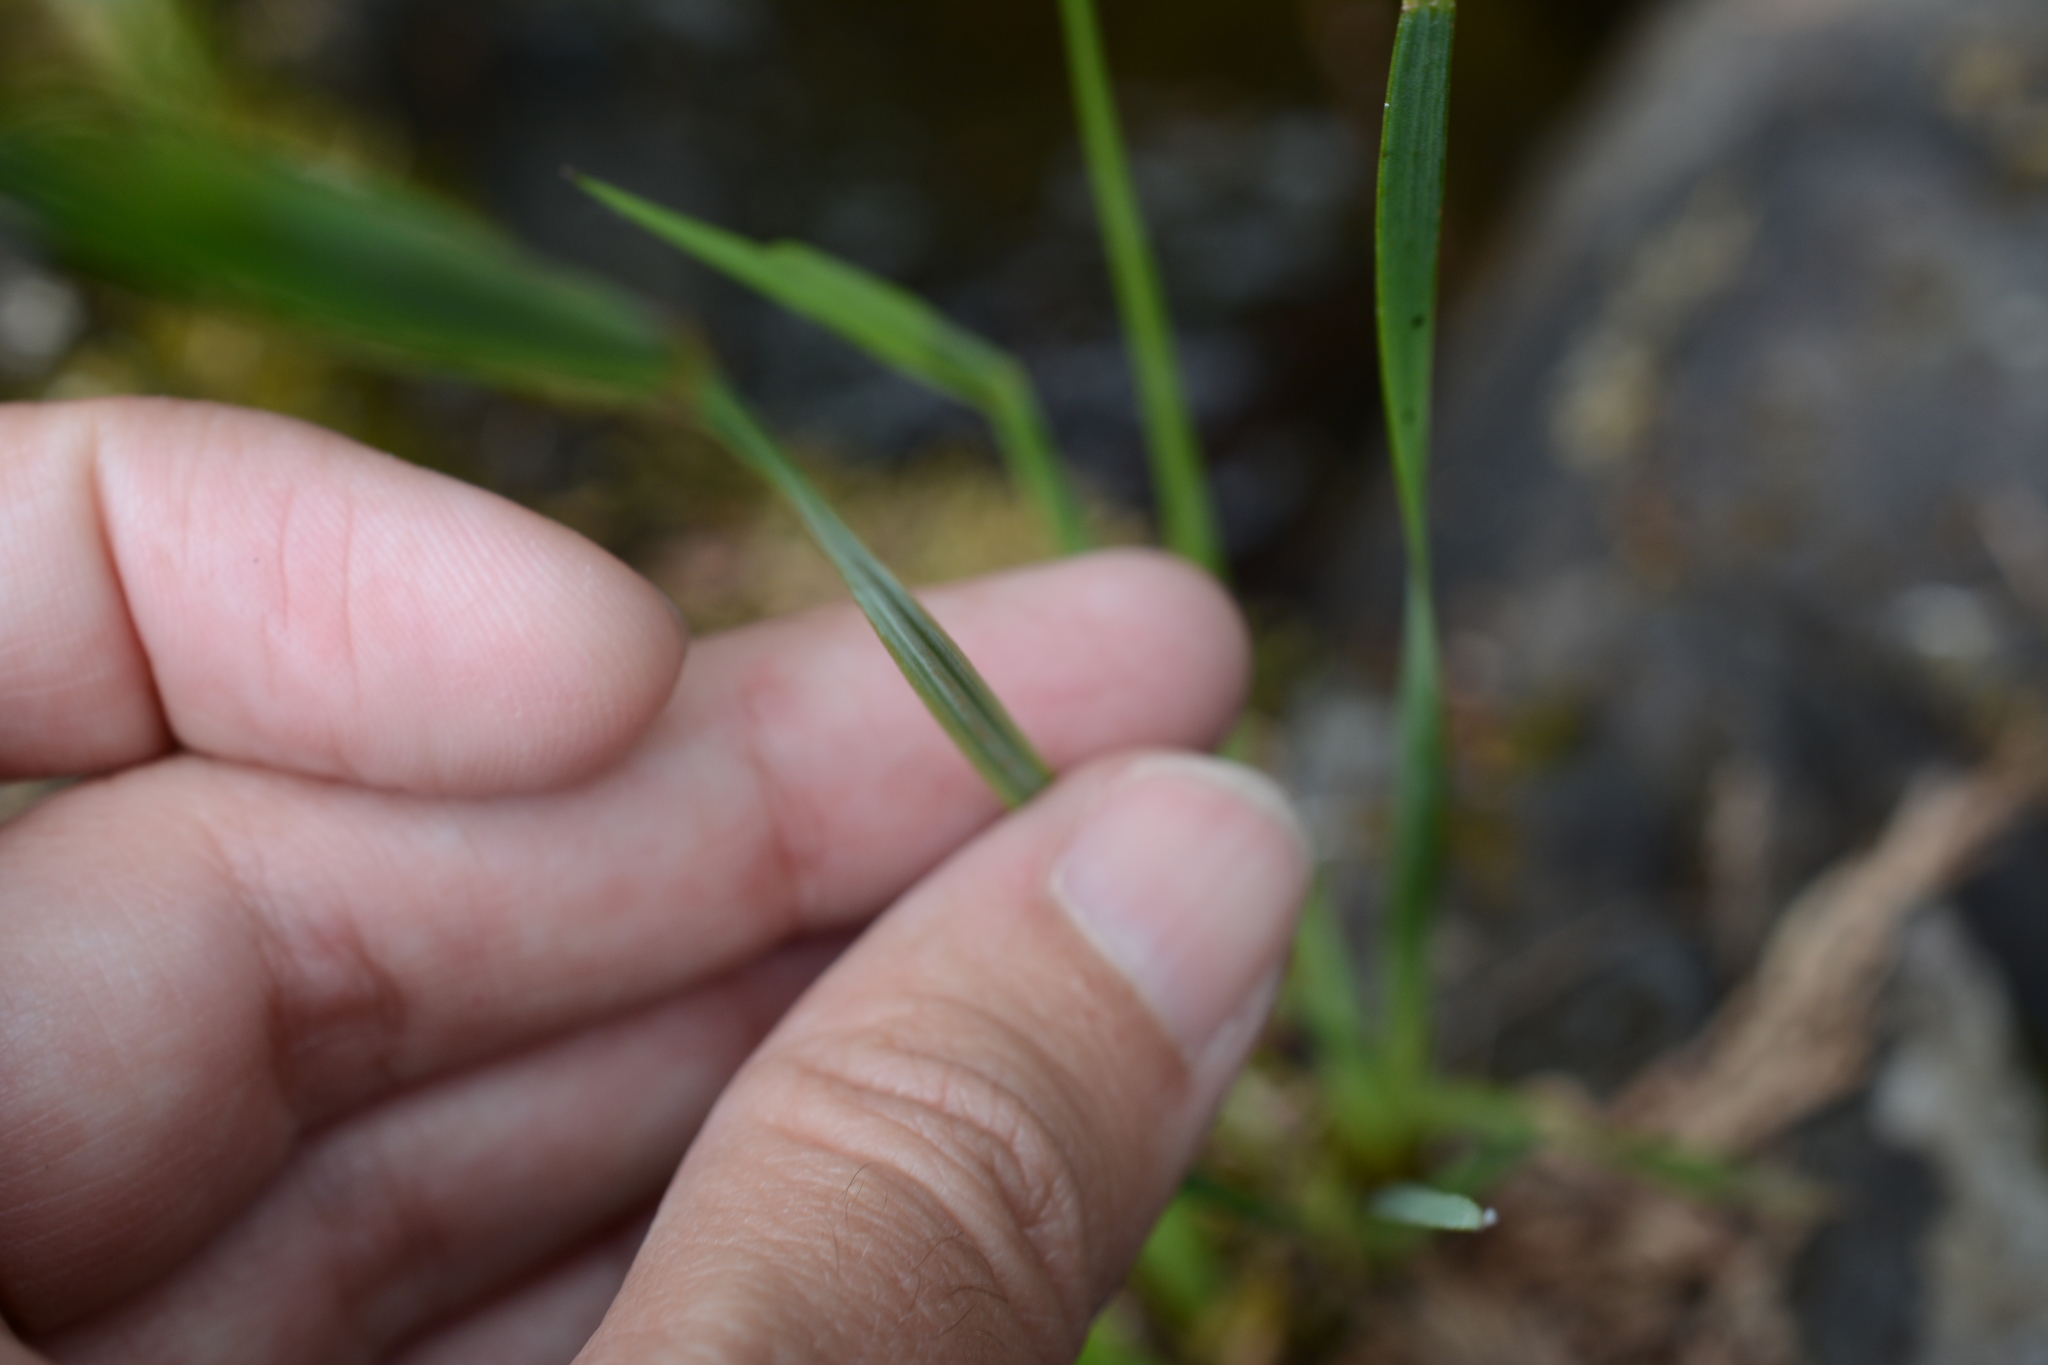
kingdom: Plantae
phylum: Tracheophyta
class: Liliopsida
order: Asparagales
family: Iridaceae
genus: Sisyrinchium
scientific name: Sisyrinchium idahoense
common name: Idaho blue-eyed-grass
